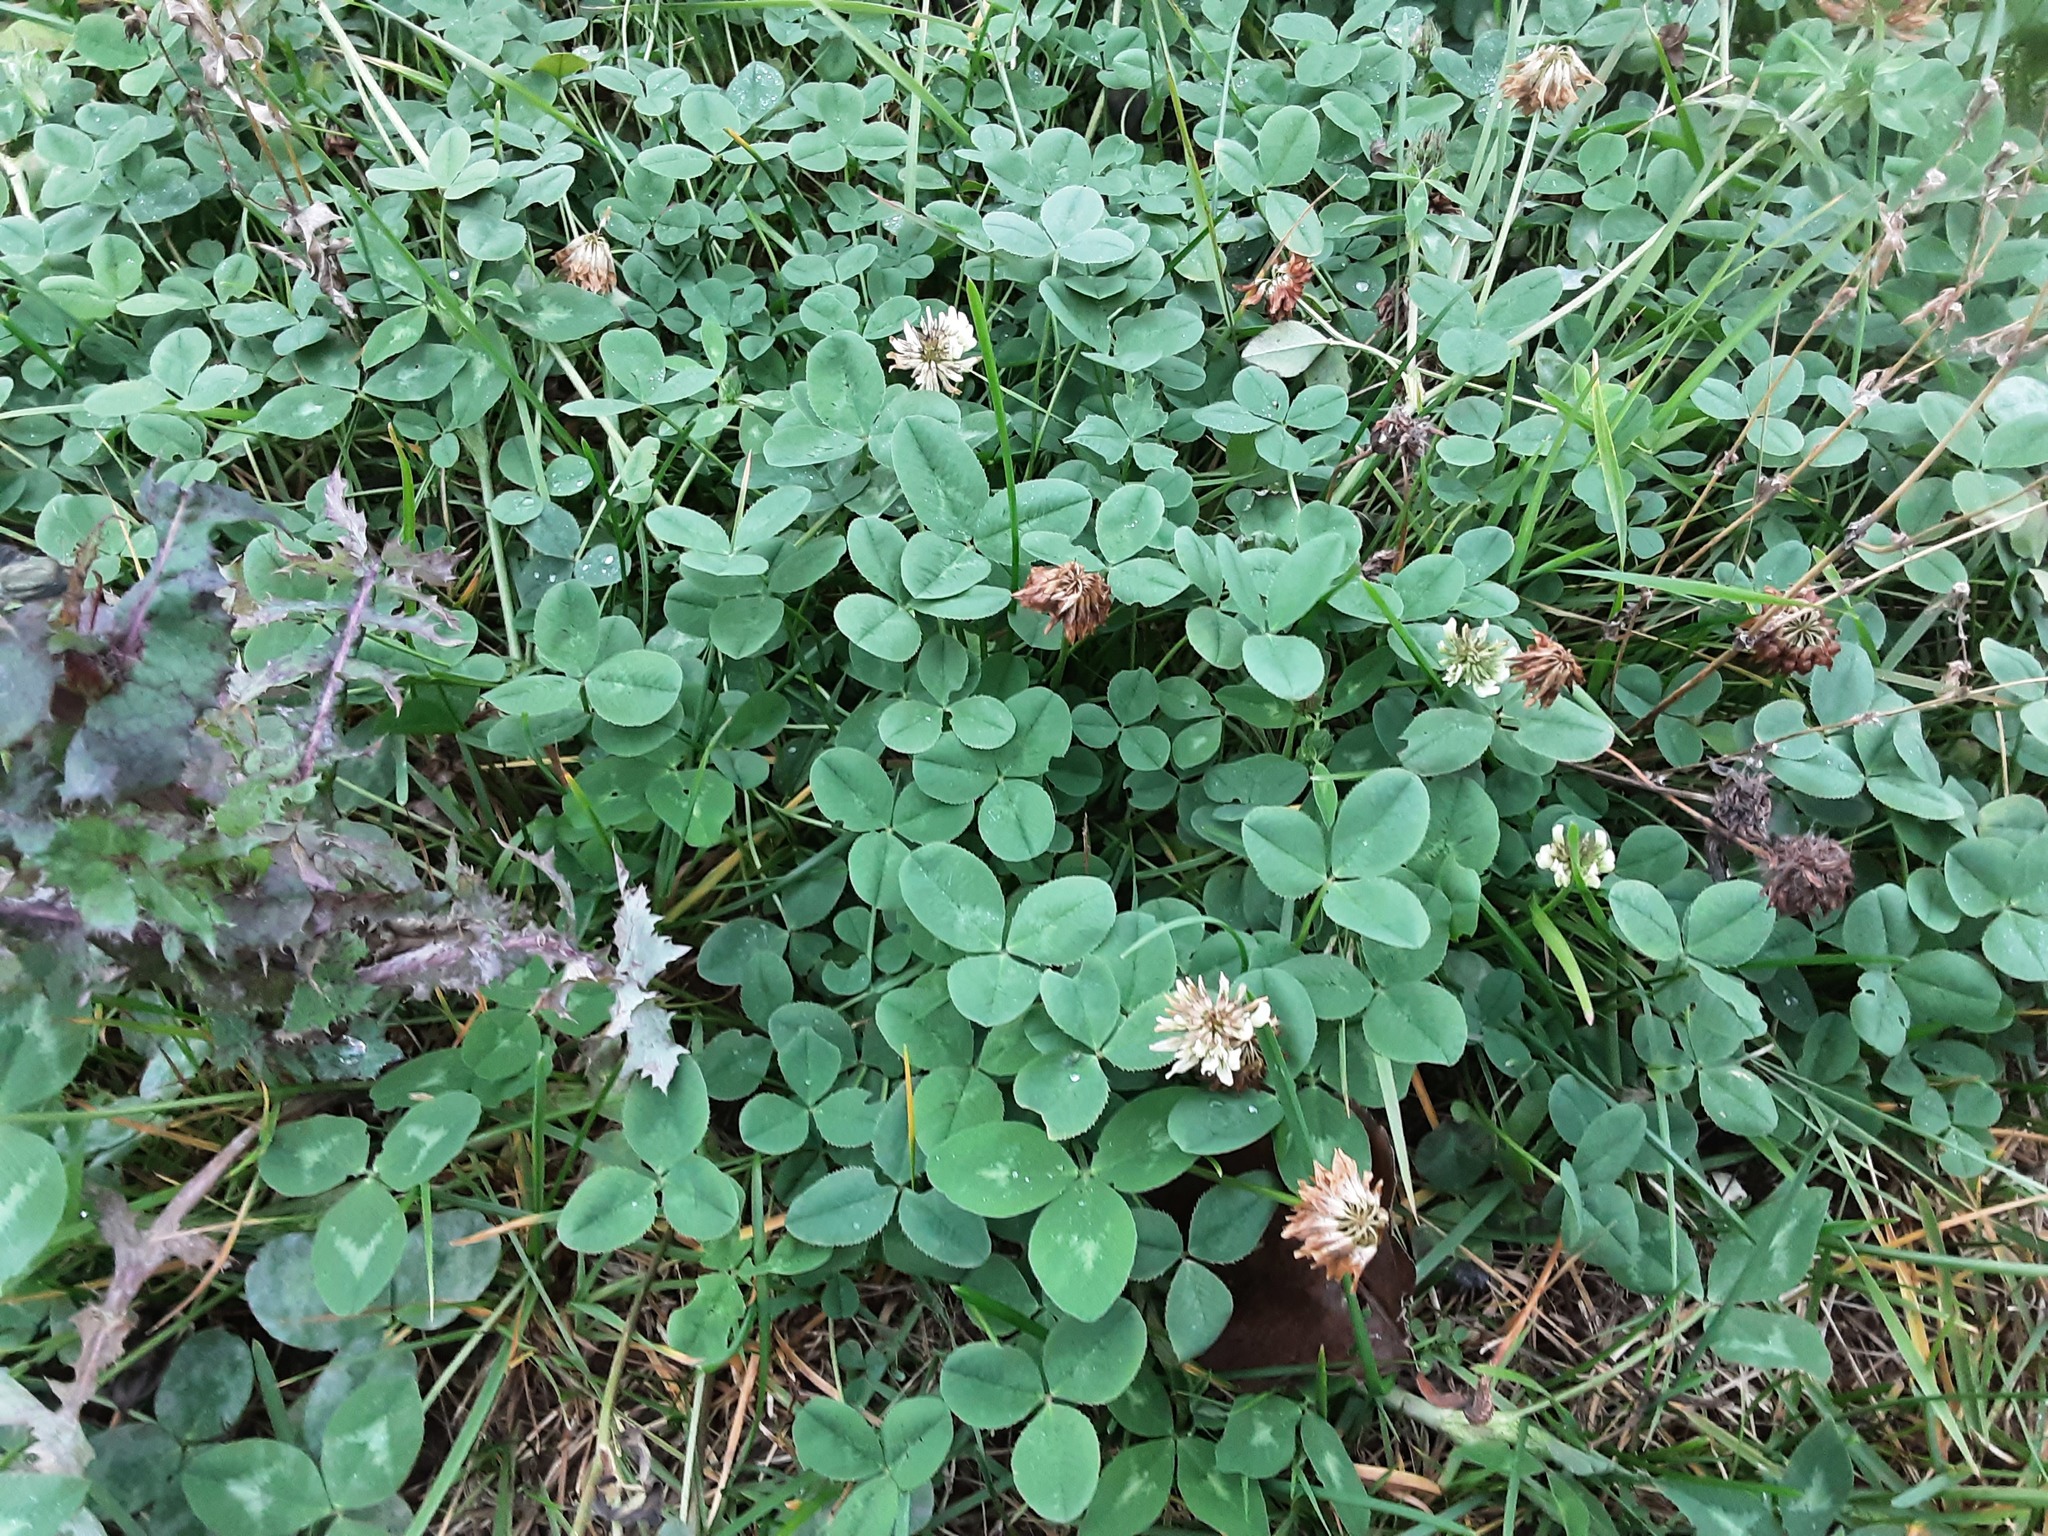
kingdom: Plantae
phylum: Tracheophyta
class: Magnoliopsida
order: Fabales
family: Fabaceae
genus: Trifolium
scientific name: Trifolium repens
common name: White clover
